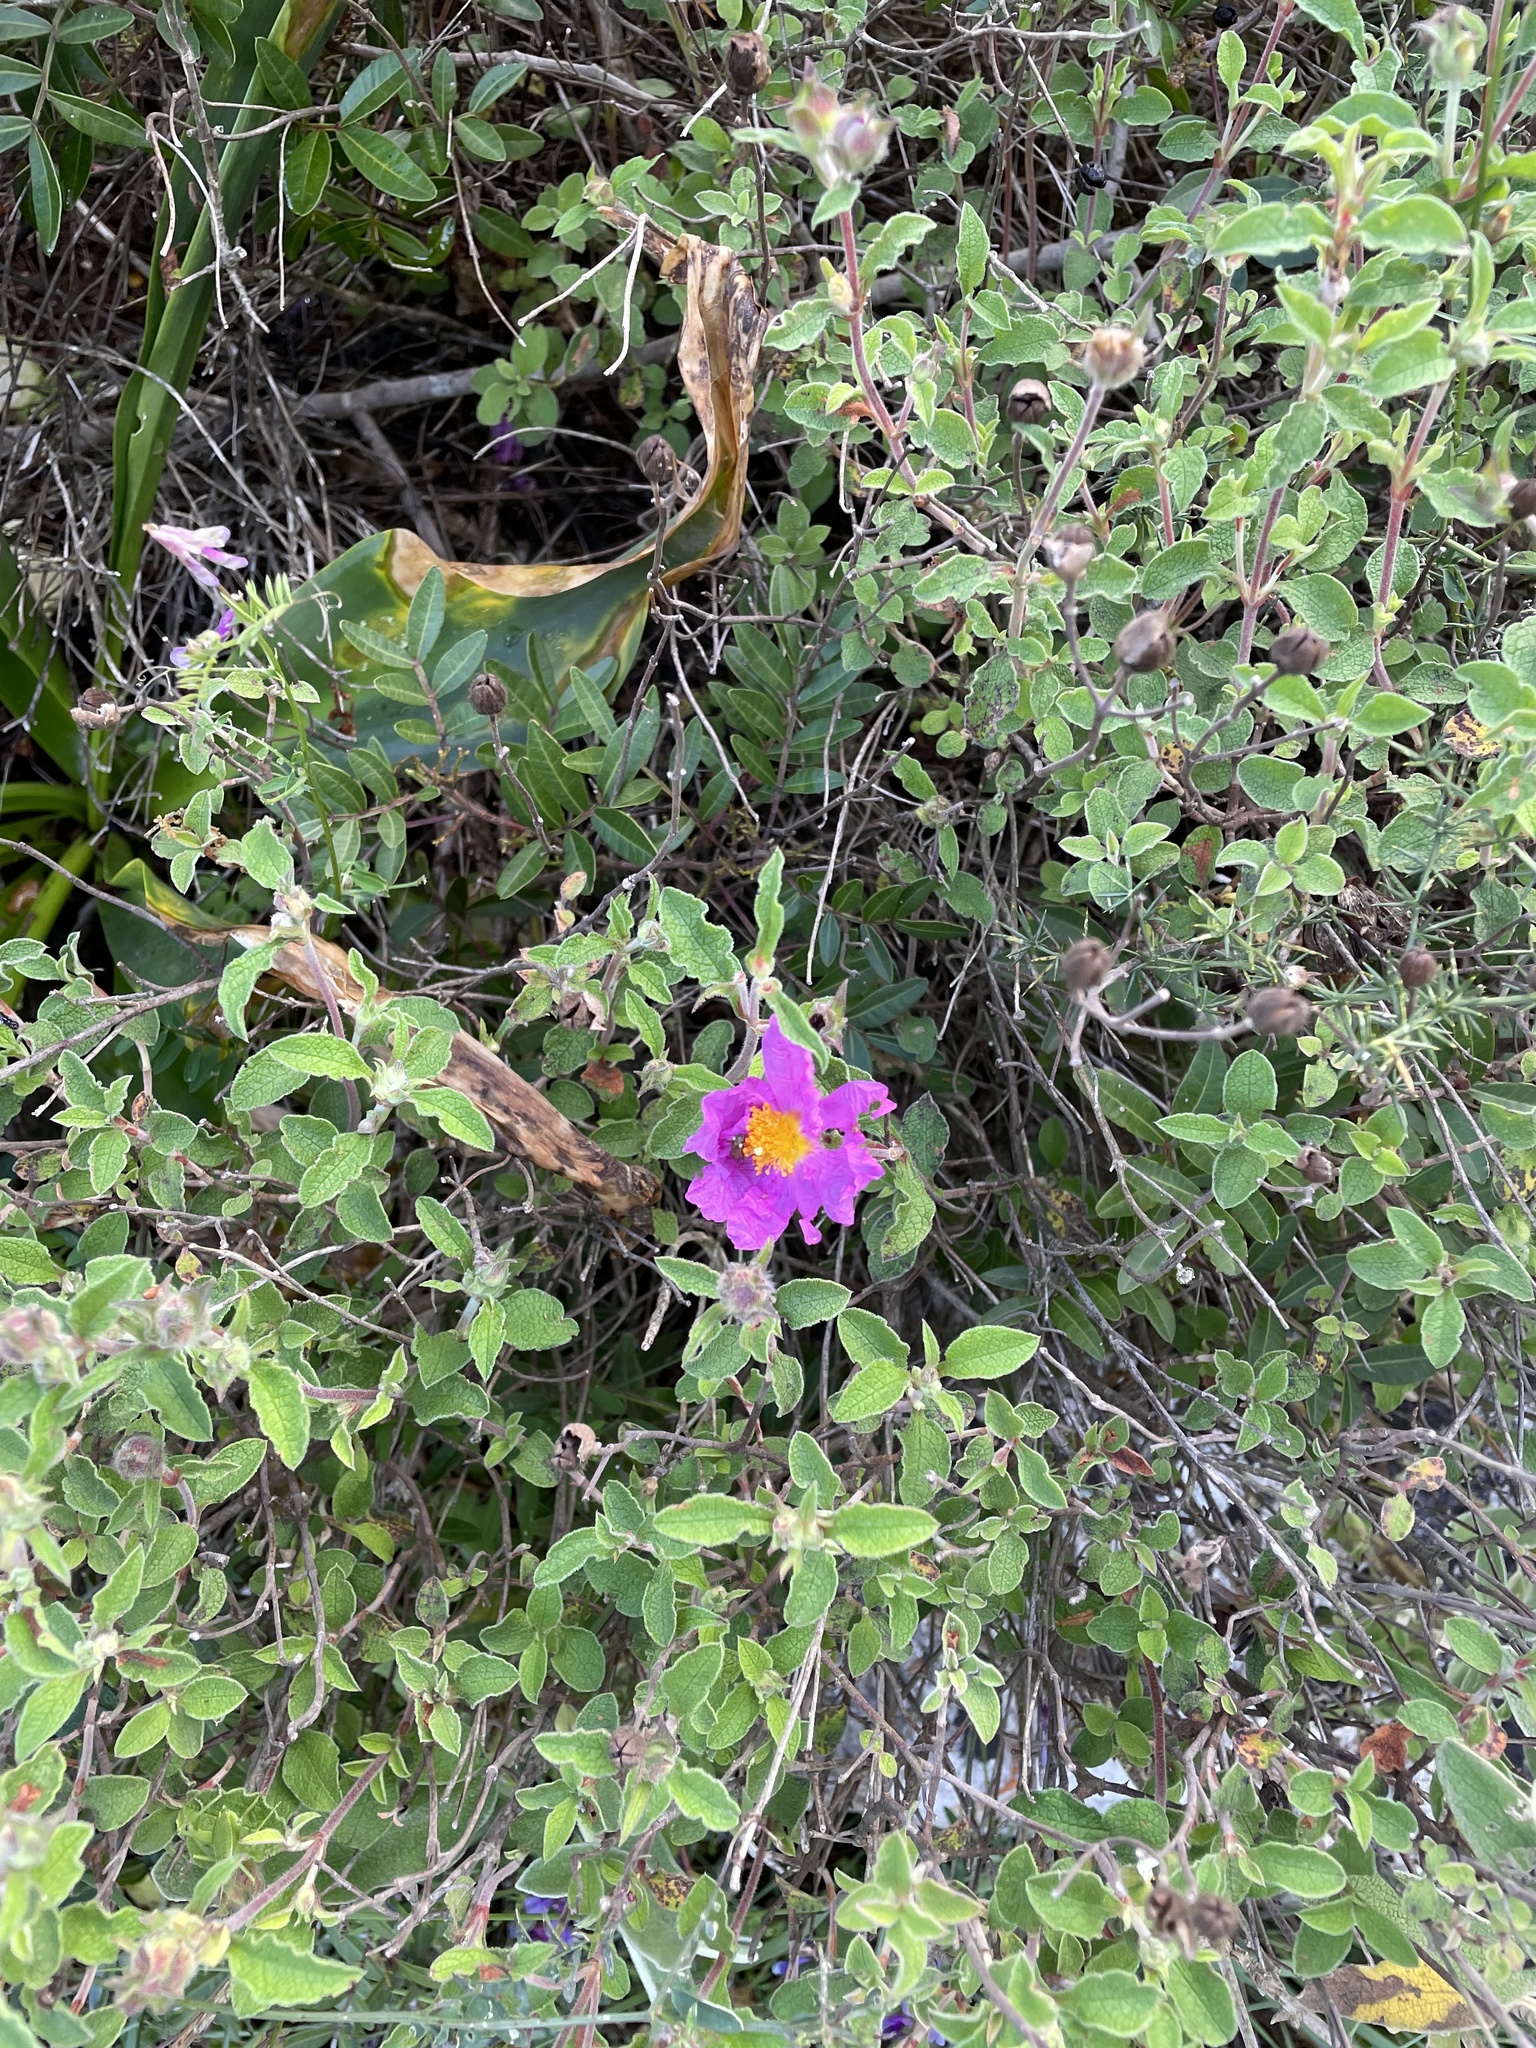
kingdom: Plantae
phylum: Tracheophyta
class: Magnoliopsida
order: Malvales
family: Cistaceae
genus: Cistus
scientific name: Cistus creticus
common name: Cretan rockrose
